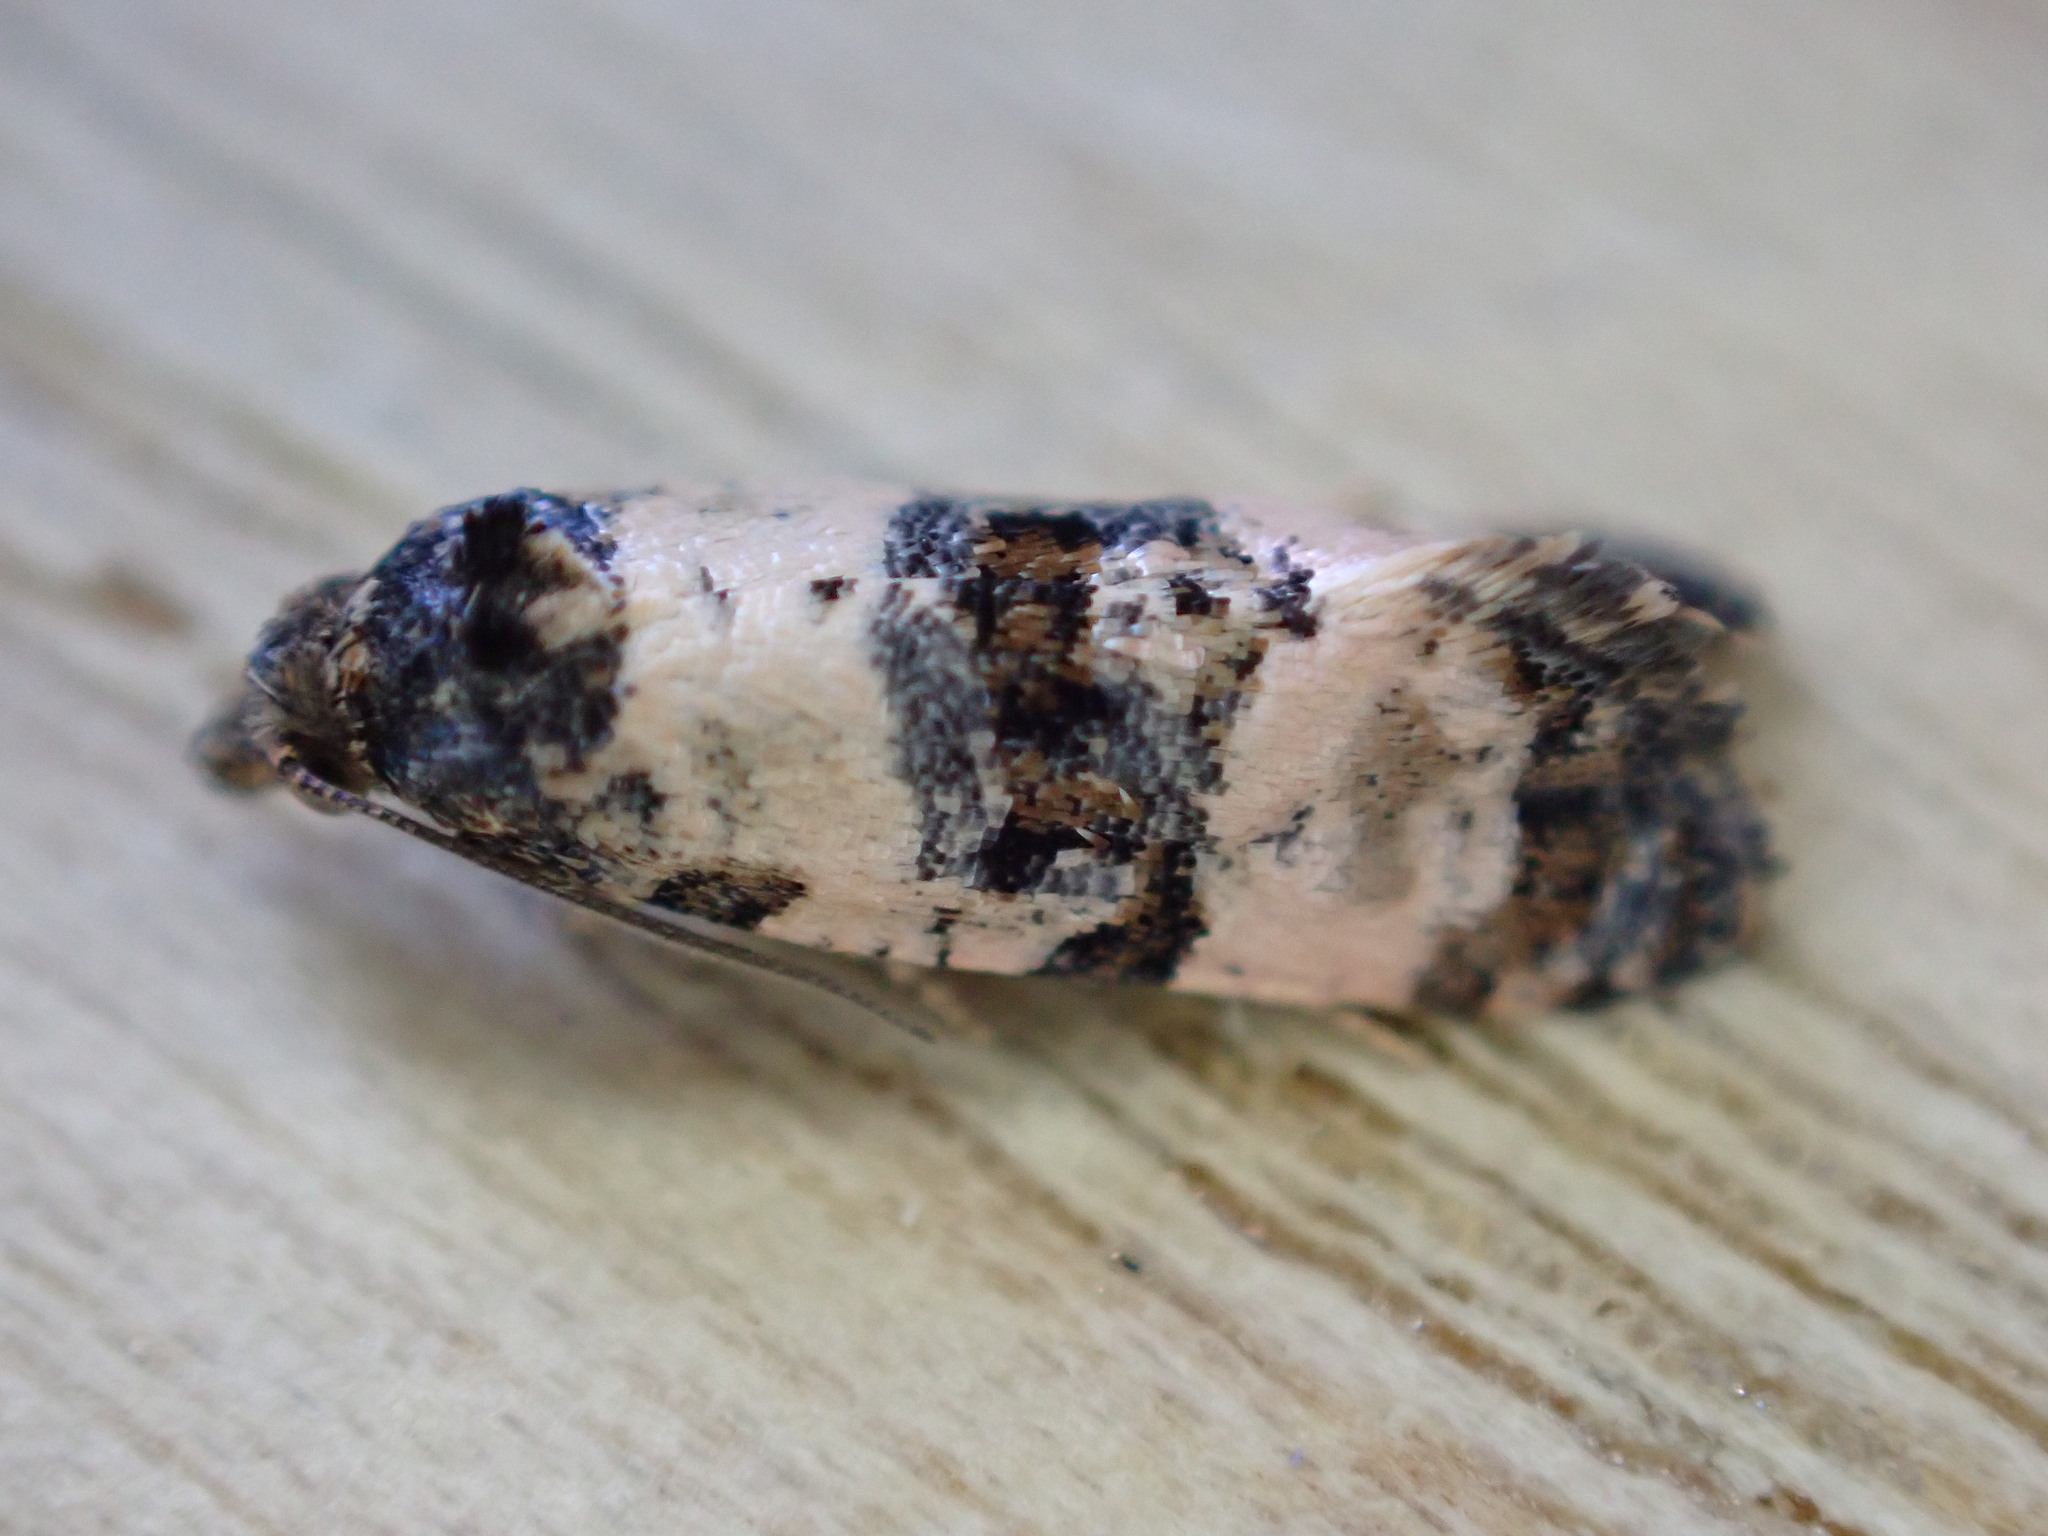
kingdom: Animalia
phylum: Arthropoda
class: Insecta
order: Lepidoptera
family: Tortricidae
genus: Cochylis
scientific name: Cochylis atricapitana
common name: Tortricid moth
